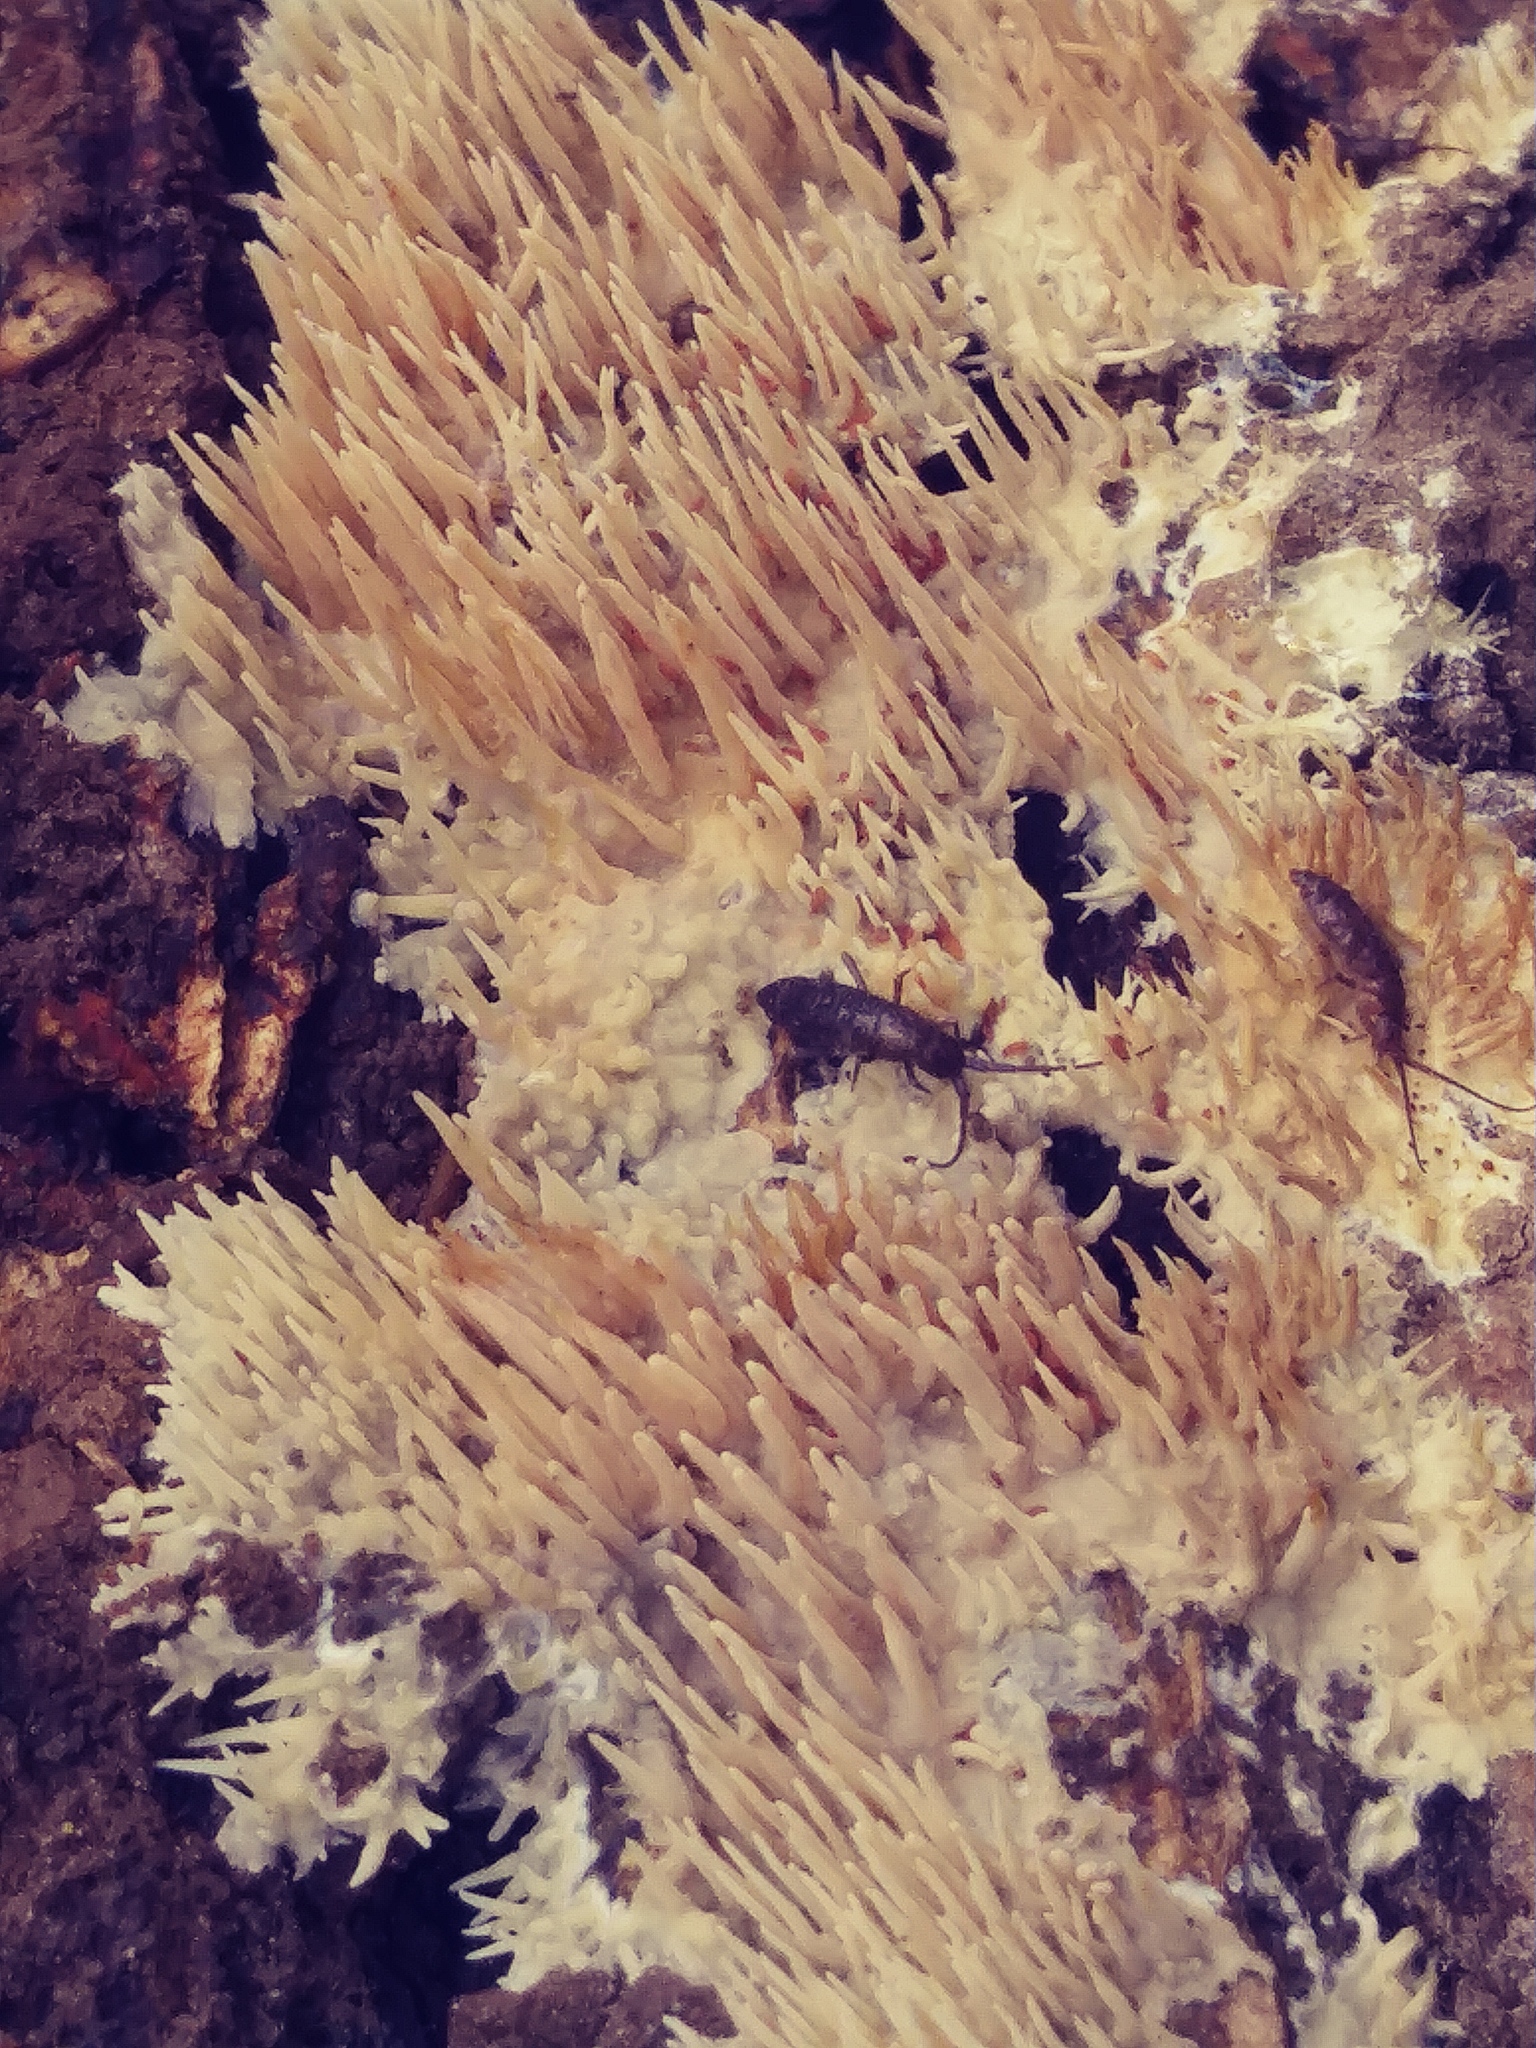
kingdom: Fungi
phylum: Basidiomycota
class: Agaricomycetes
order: Agaricales
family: Radulomycetaceae
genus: Radulomyces
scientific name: Radulomyces copelandii
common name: Asian beauty
